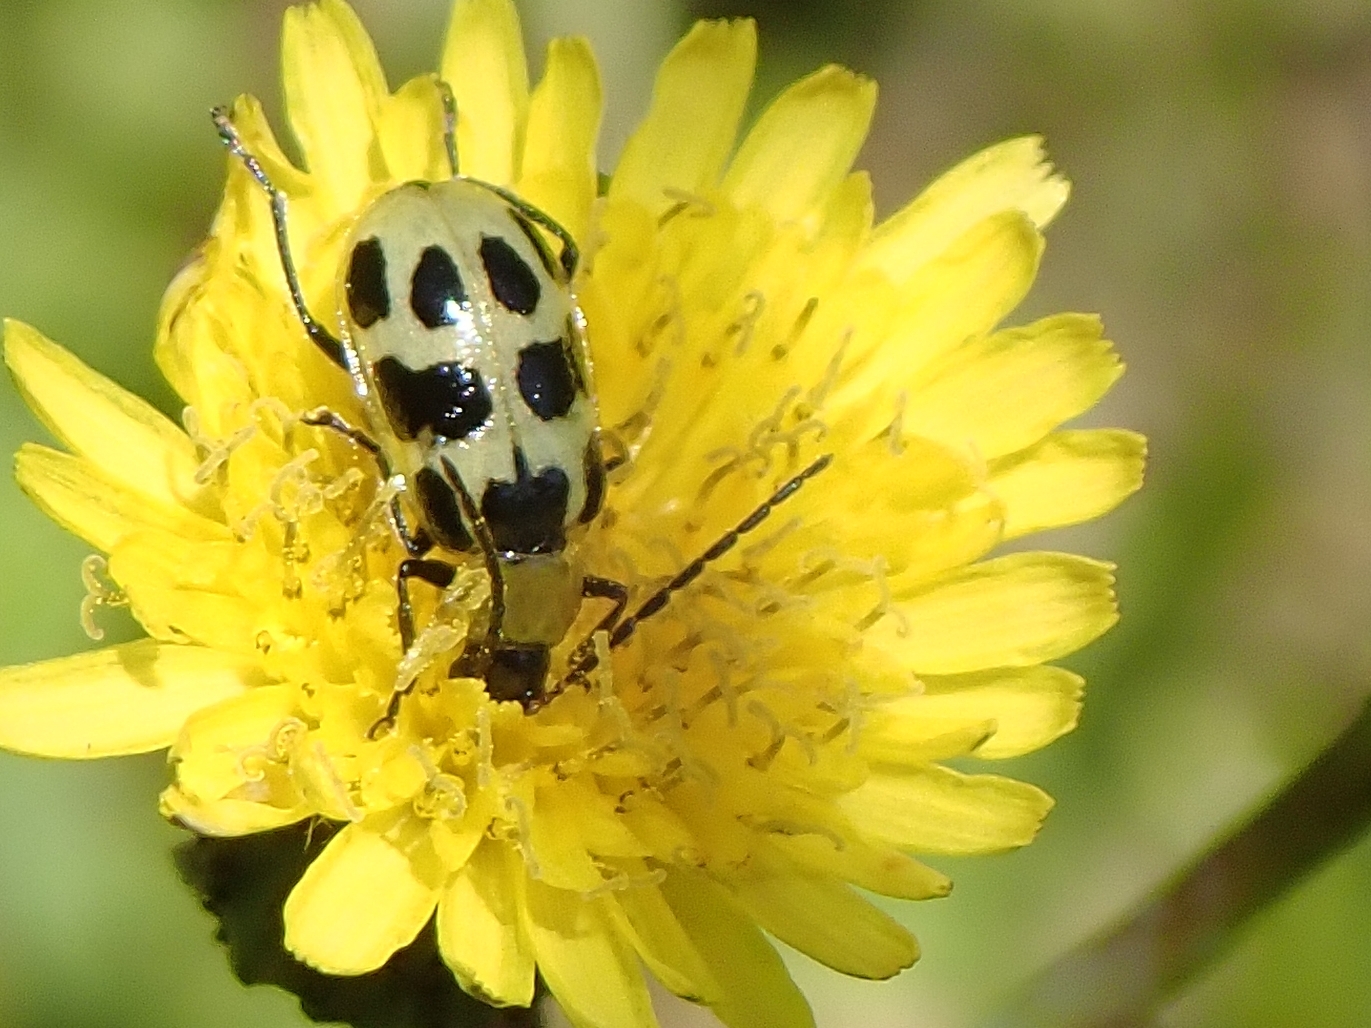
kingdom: Animalia
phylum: Arthropoda
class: Insecta
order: Coleoptera
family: Chrysomelidae
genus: Diabrotica
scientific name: Diabrotica undecimpunctata
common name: Spotted cucumber beetle
